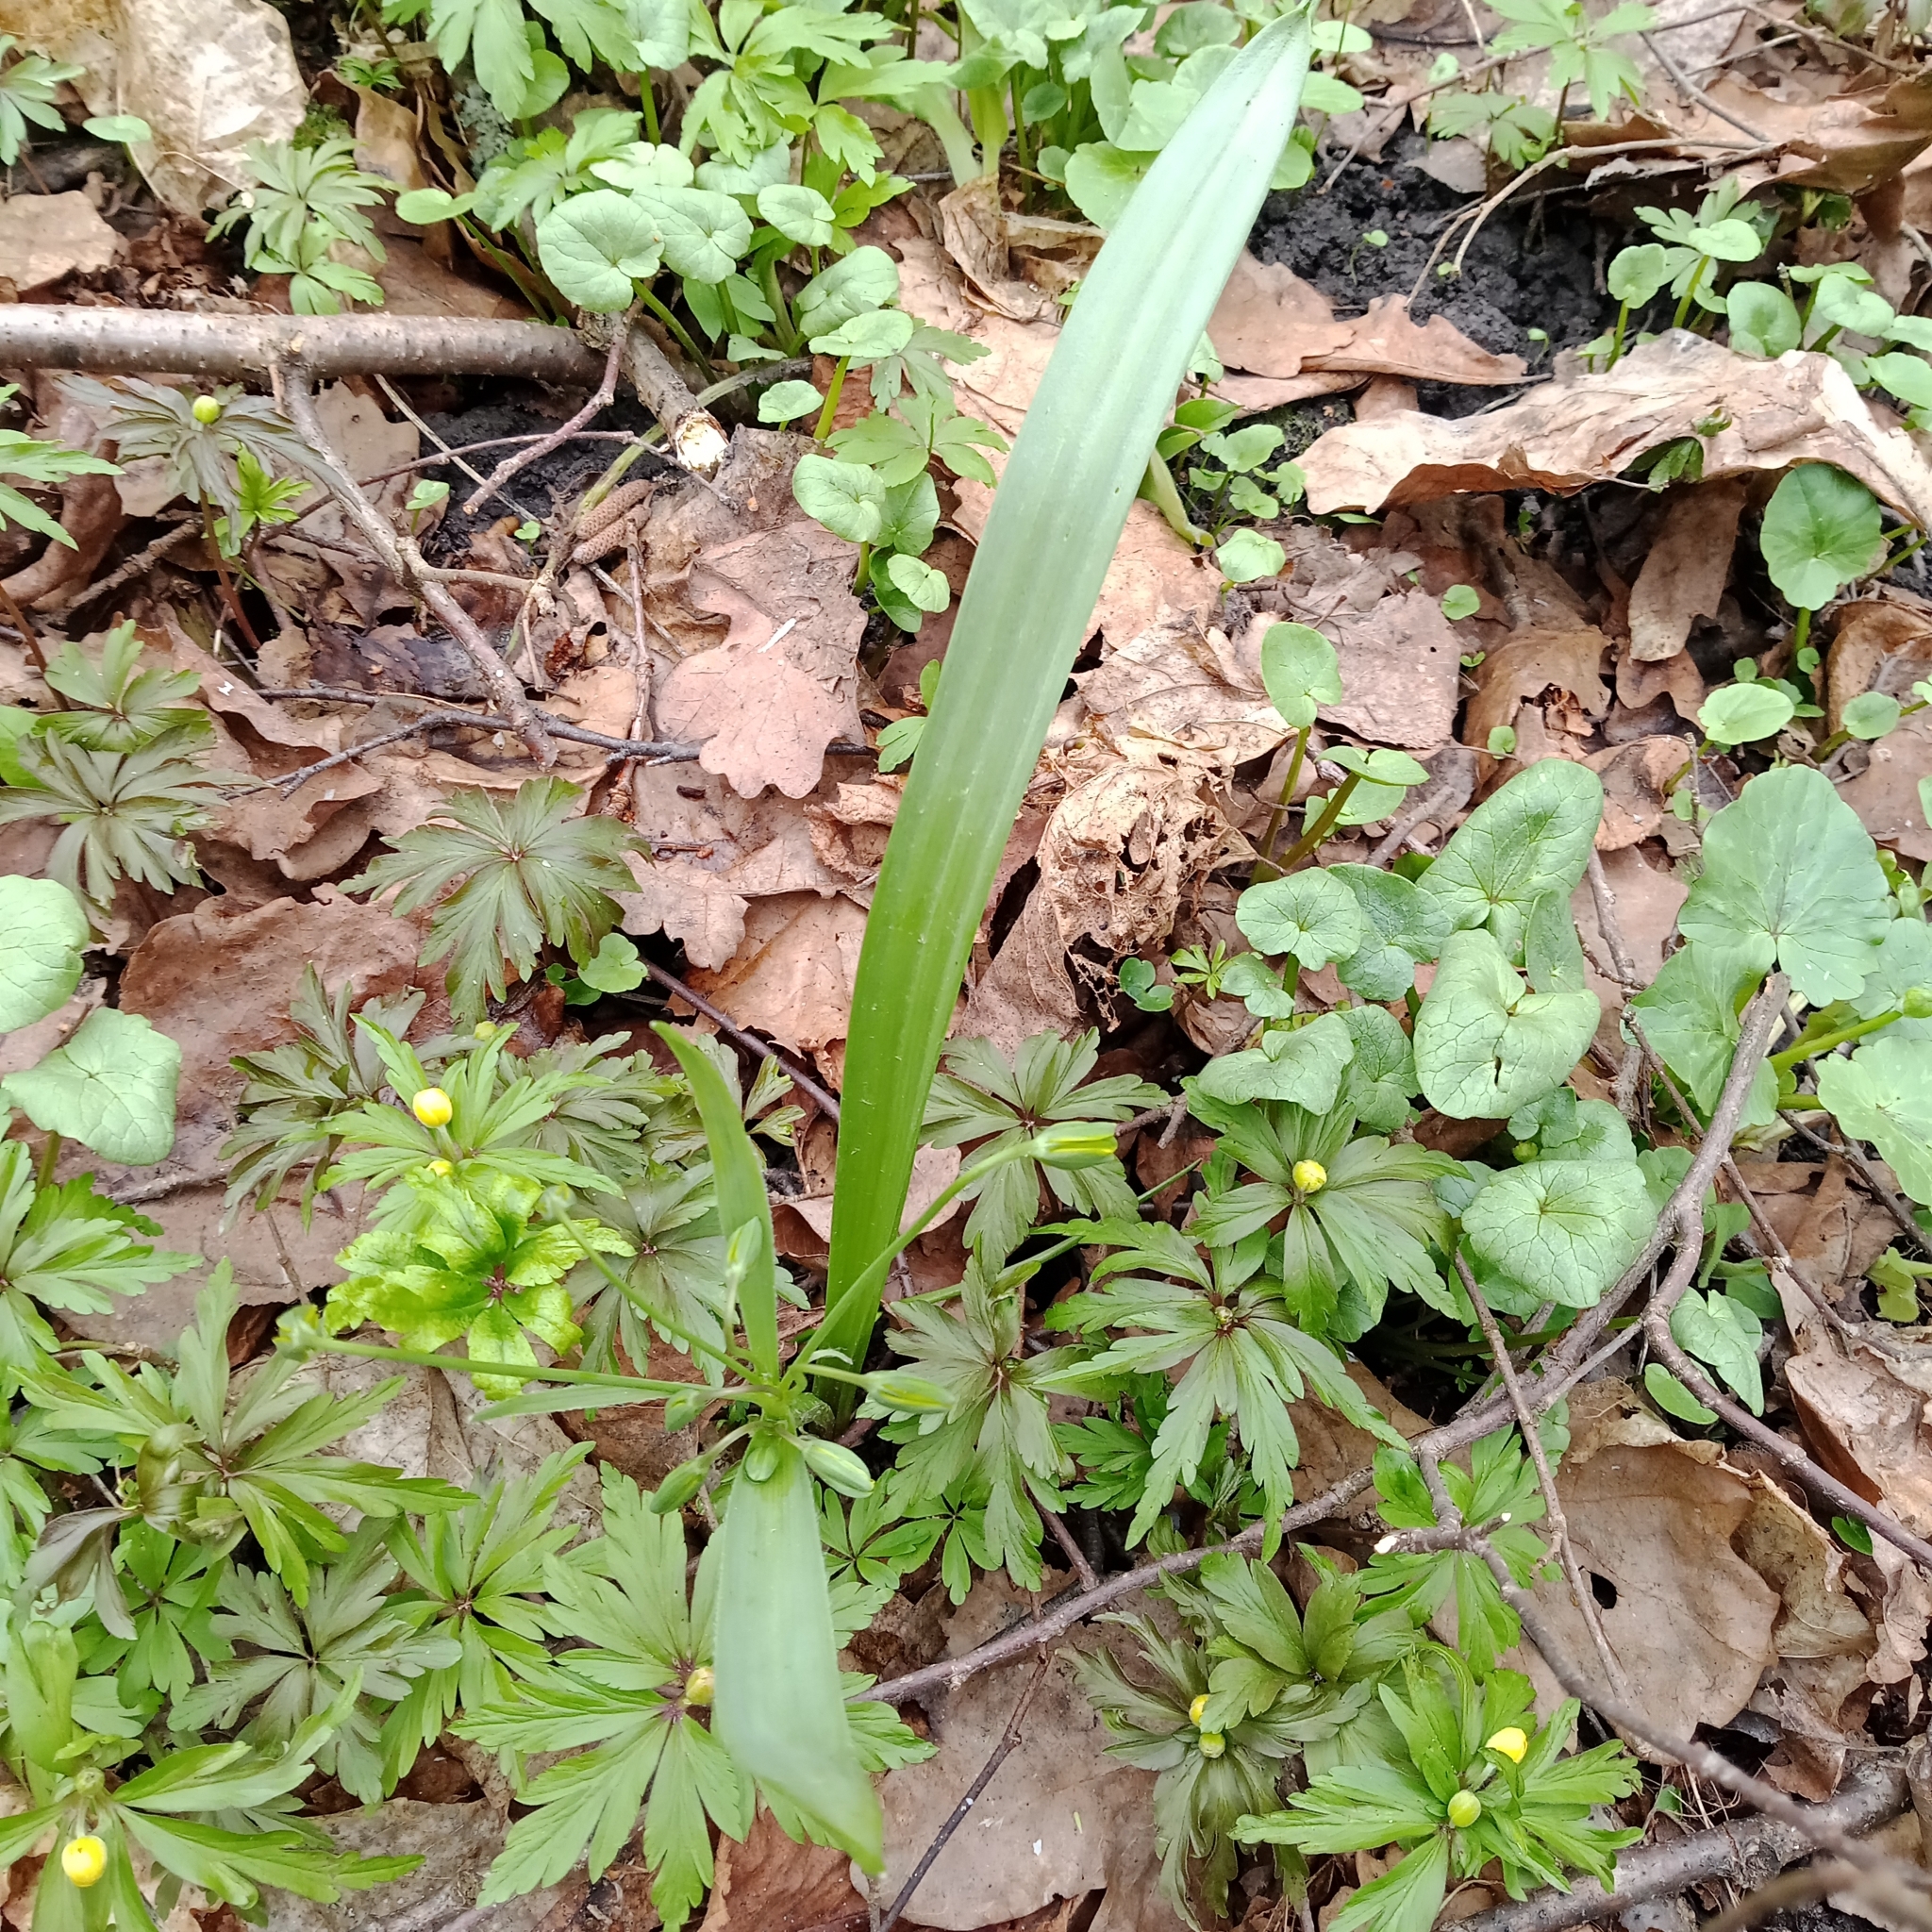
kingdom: Plantae
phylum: Tracheophyta
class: Liliopsida
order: Liliales
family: Liliaceae
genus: Gagea
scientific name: Gagea lutea
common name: Yellow star-of-bethlehem
